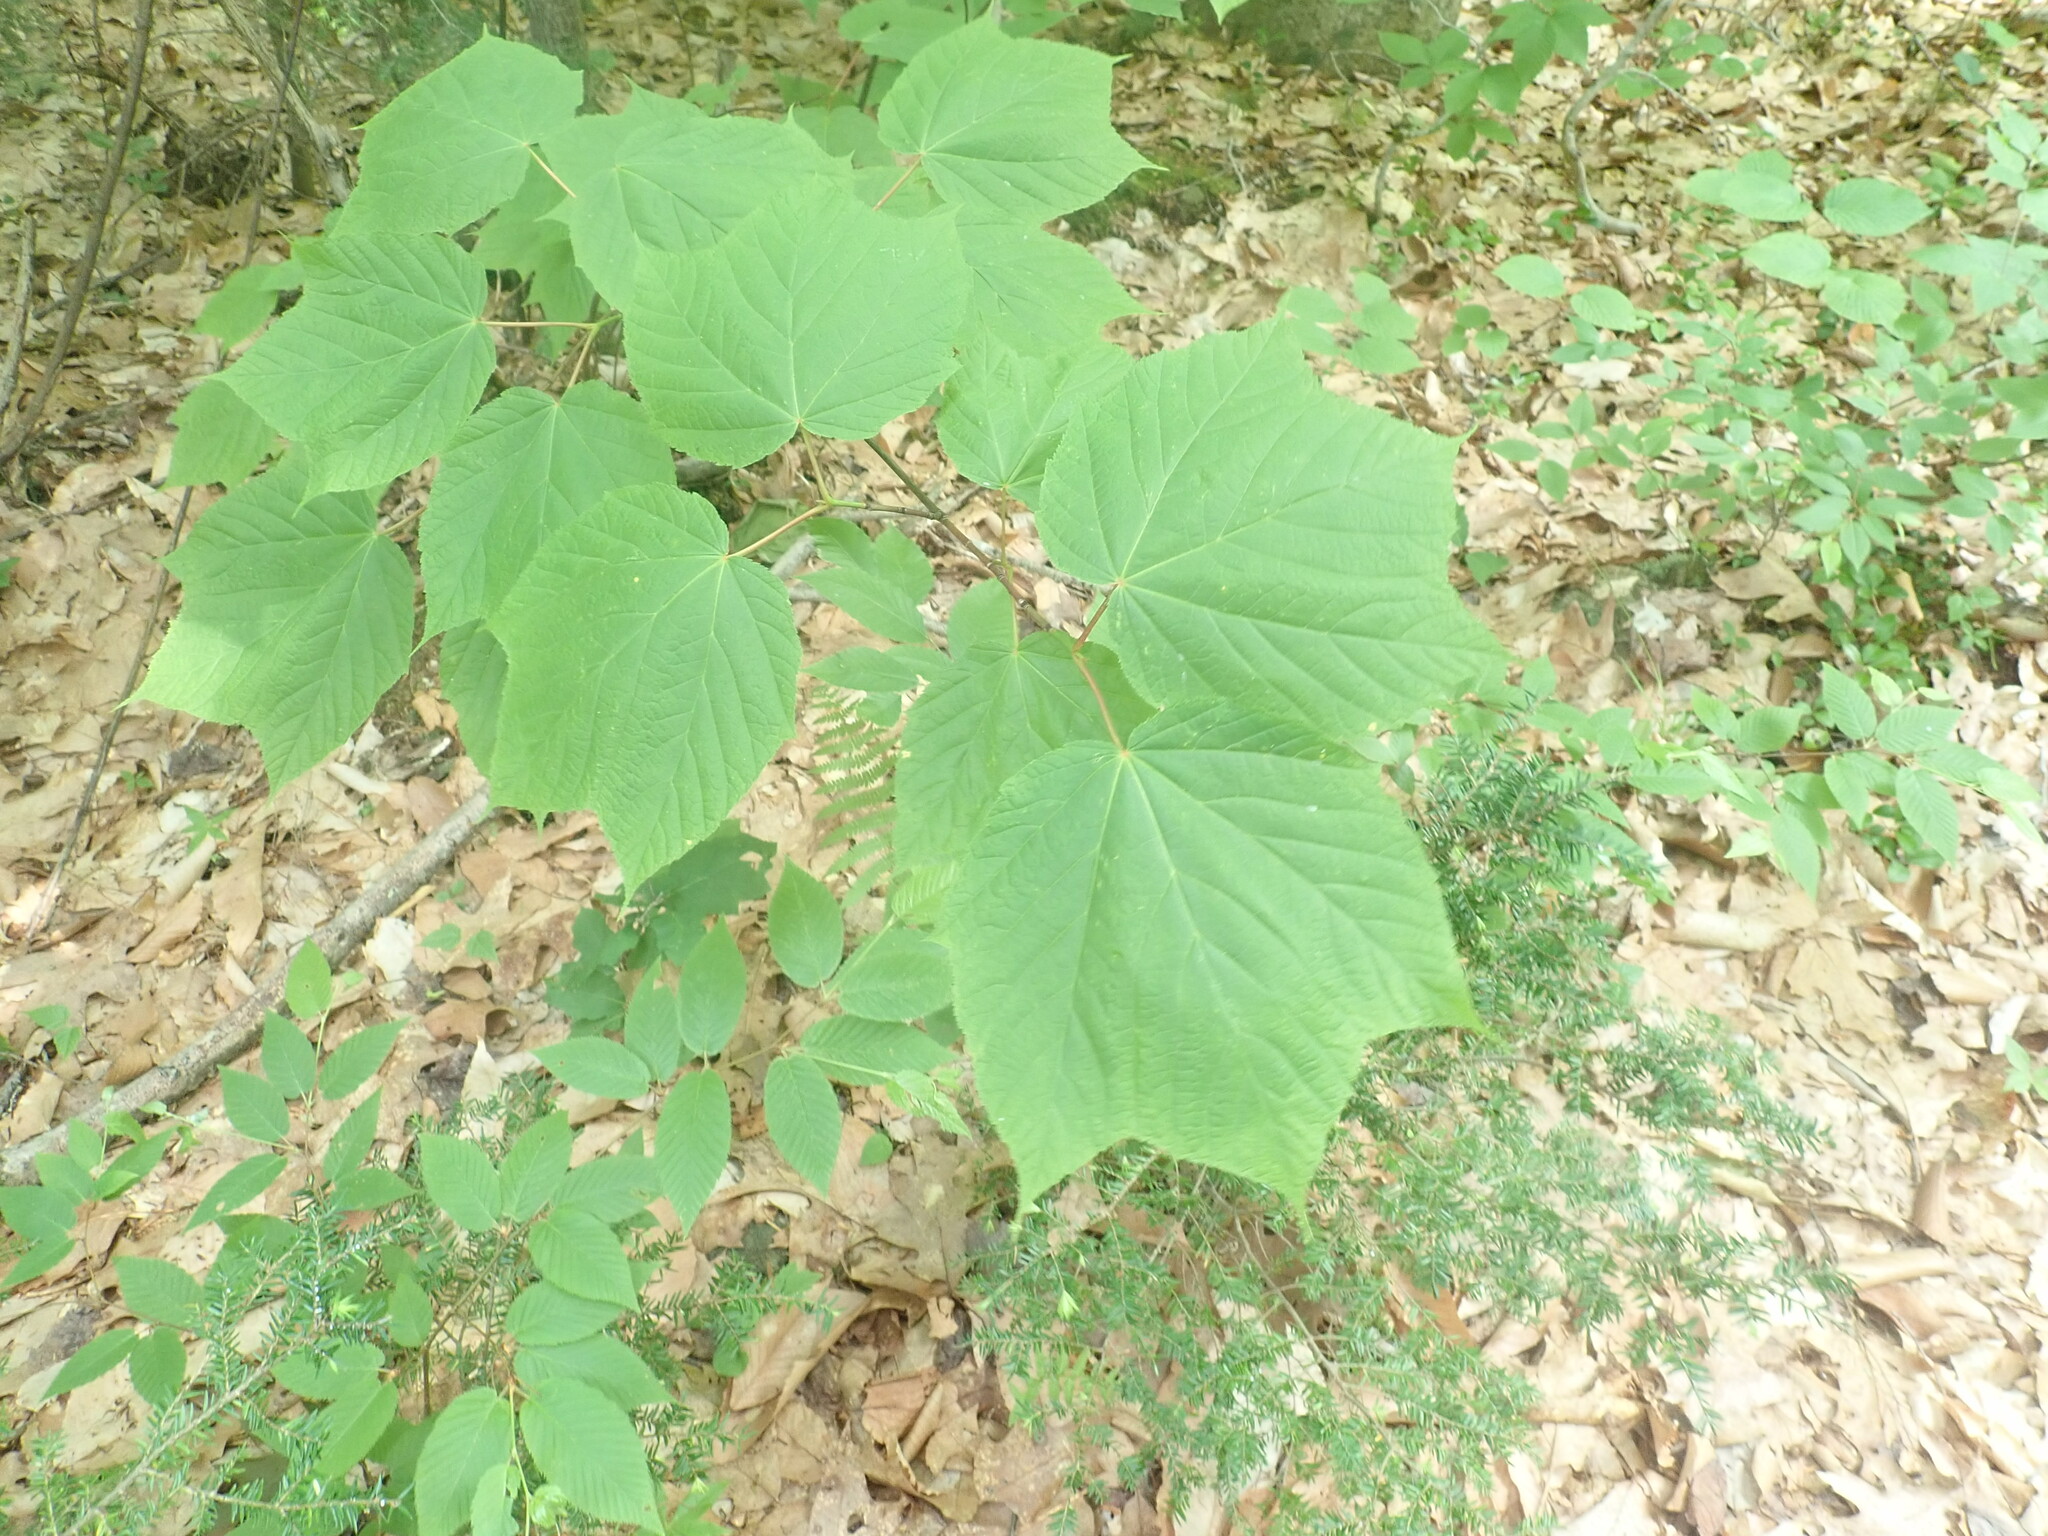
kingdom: Plantae
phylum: Tracheophyta
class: Magnoliopsida
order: Sapindales
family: Sapindaceae
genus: Acer
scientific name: Acer pensylvanicum
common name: Moosewood
